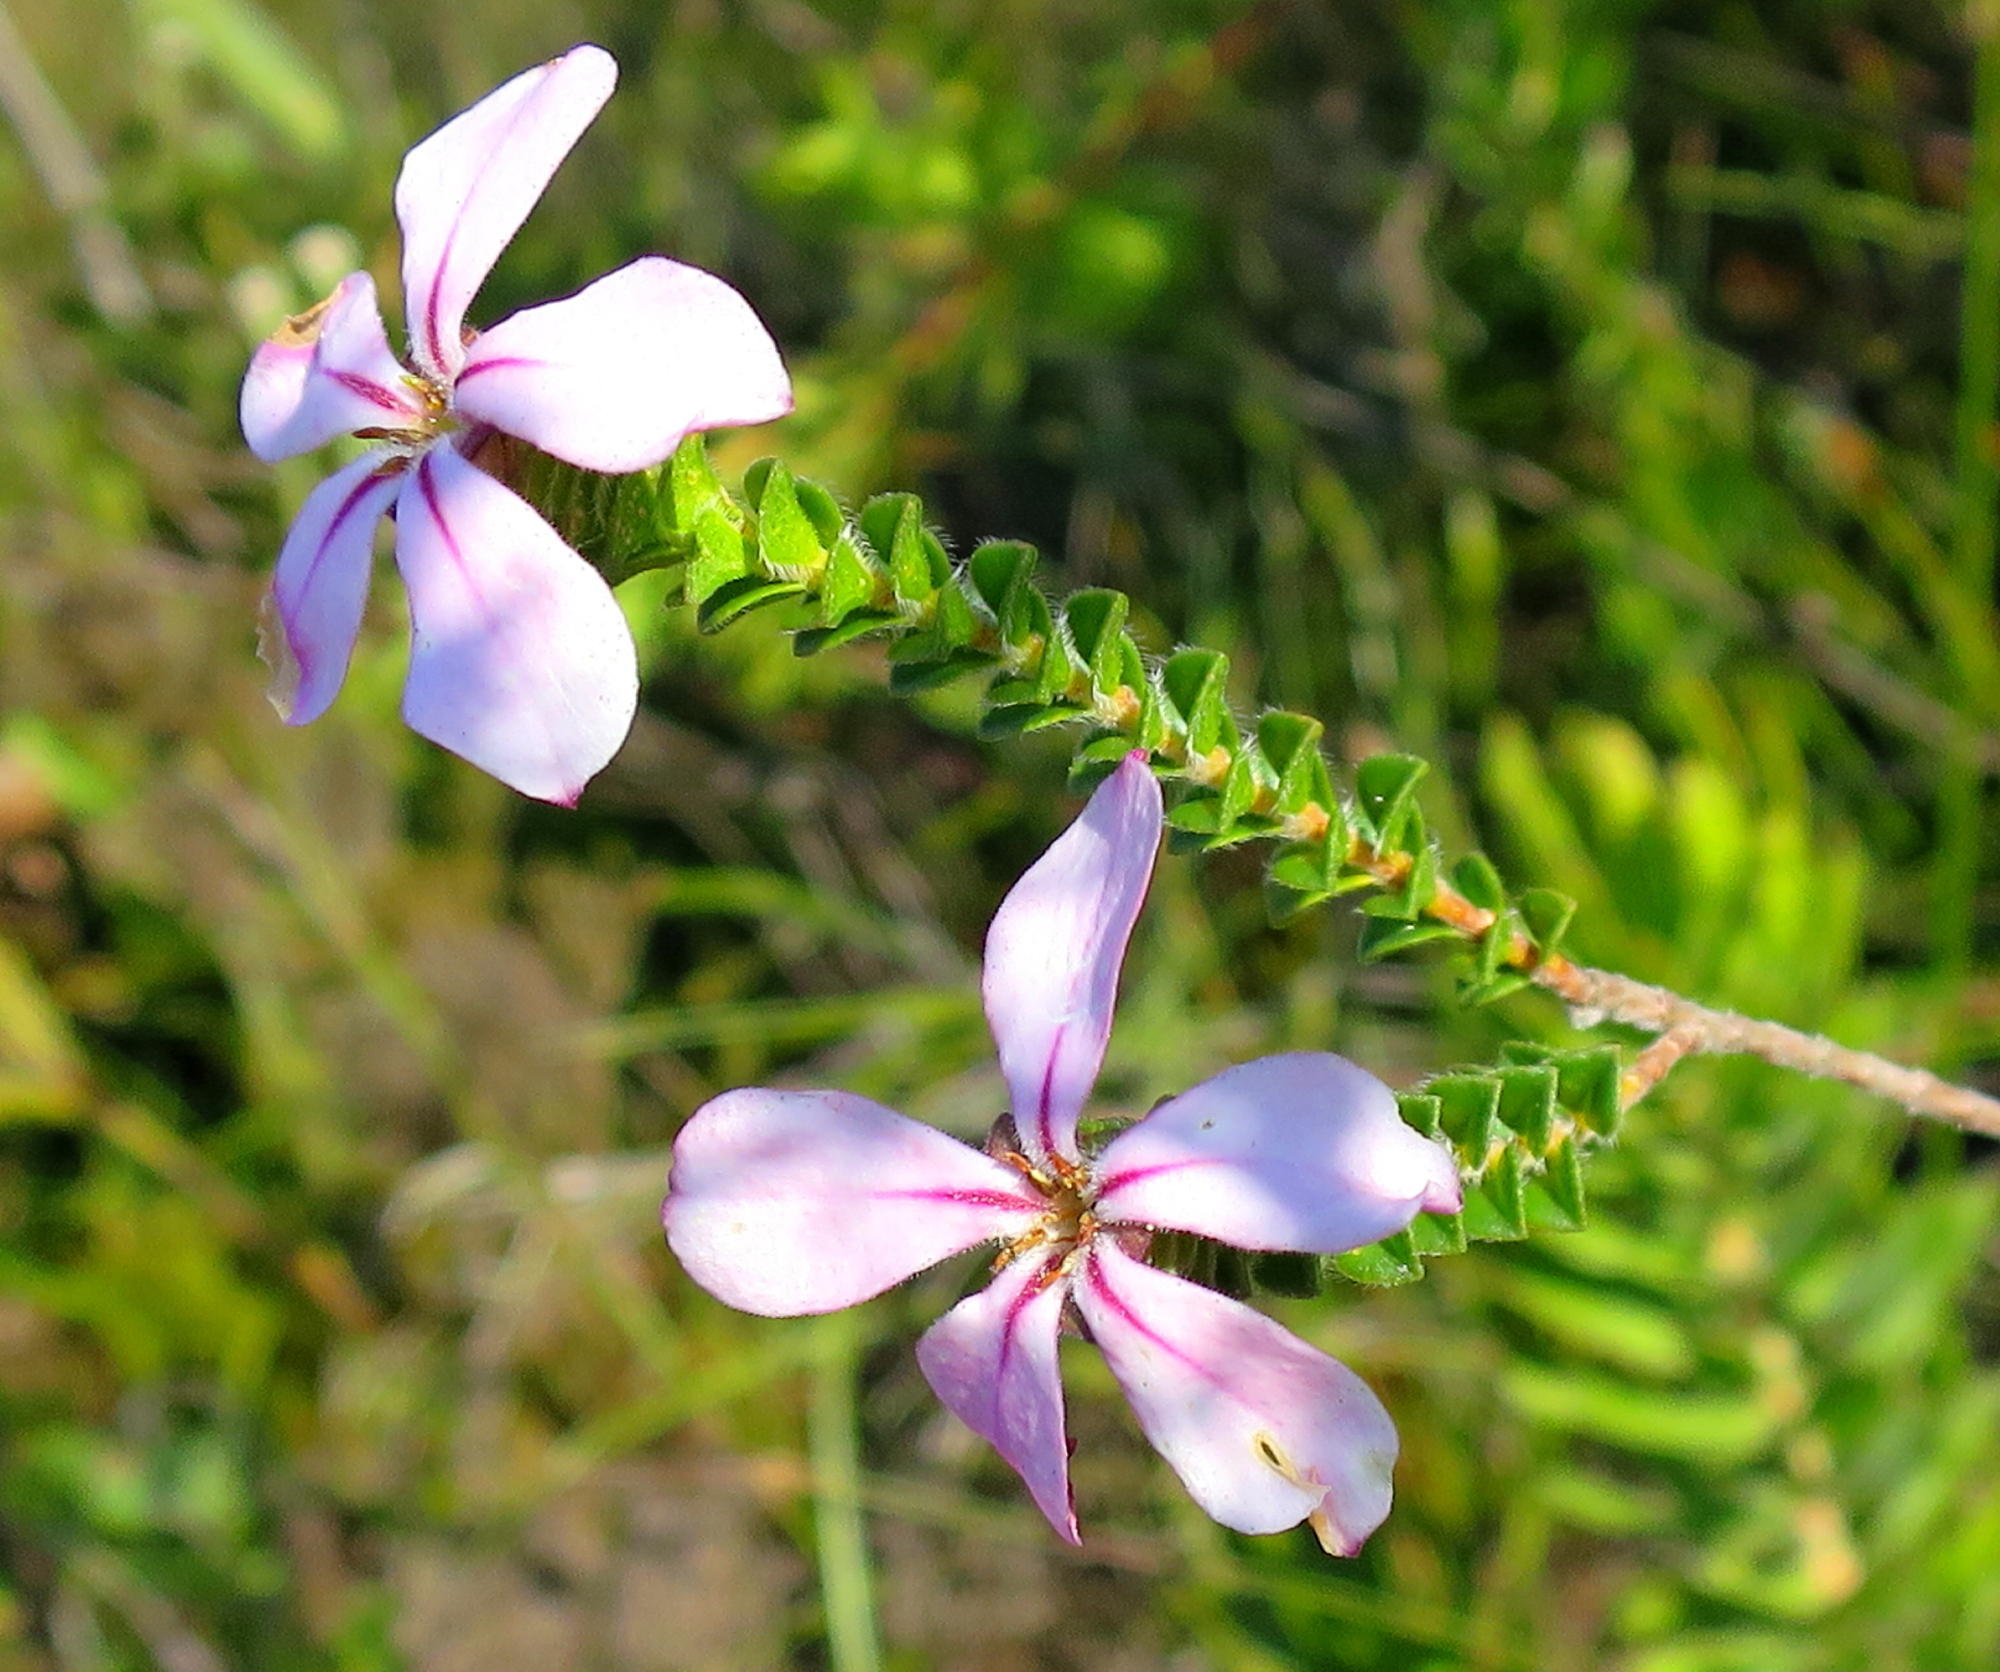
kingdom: Plantae
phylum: Tracheophyta
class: Magnoliopsida
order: Sapindales
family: Rutaceae
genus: Acmadenia
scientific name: Acmadenia tetragona
